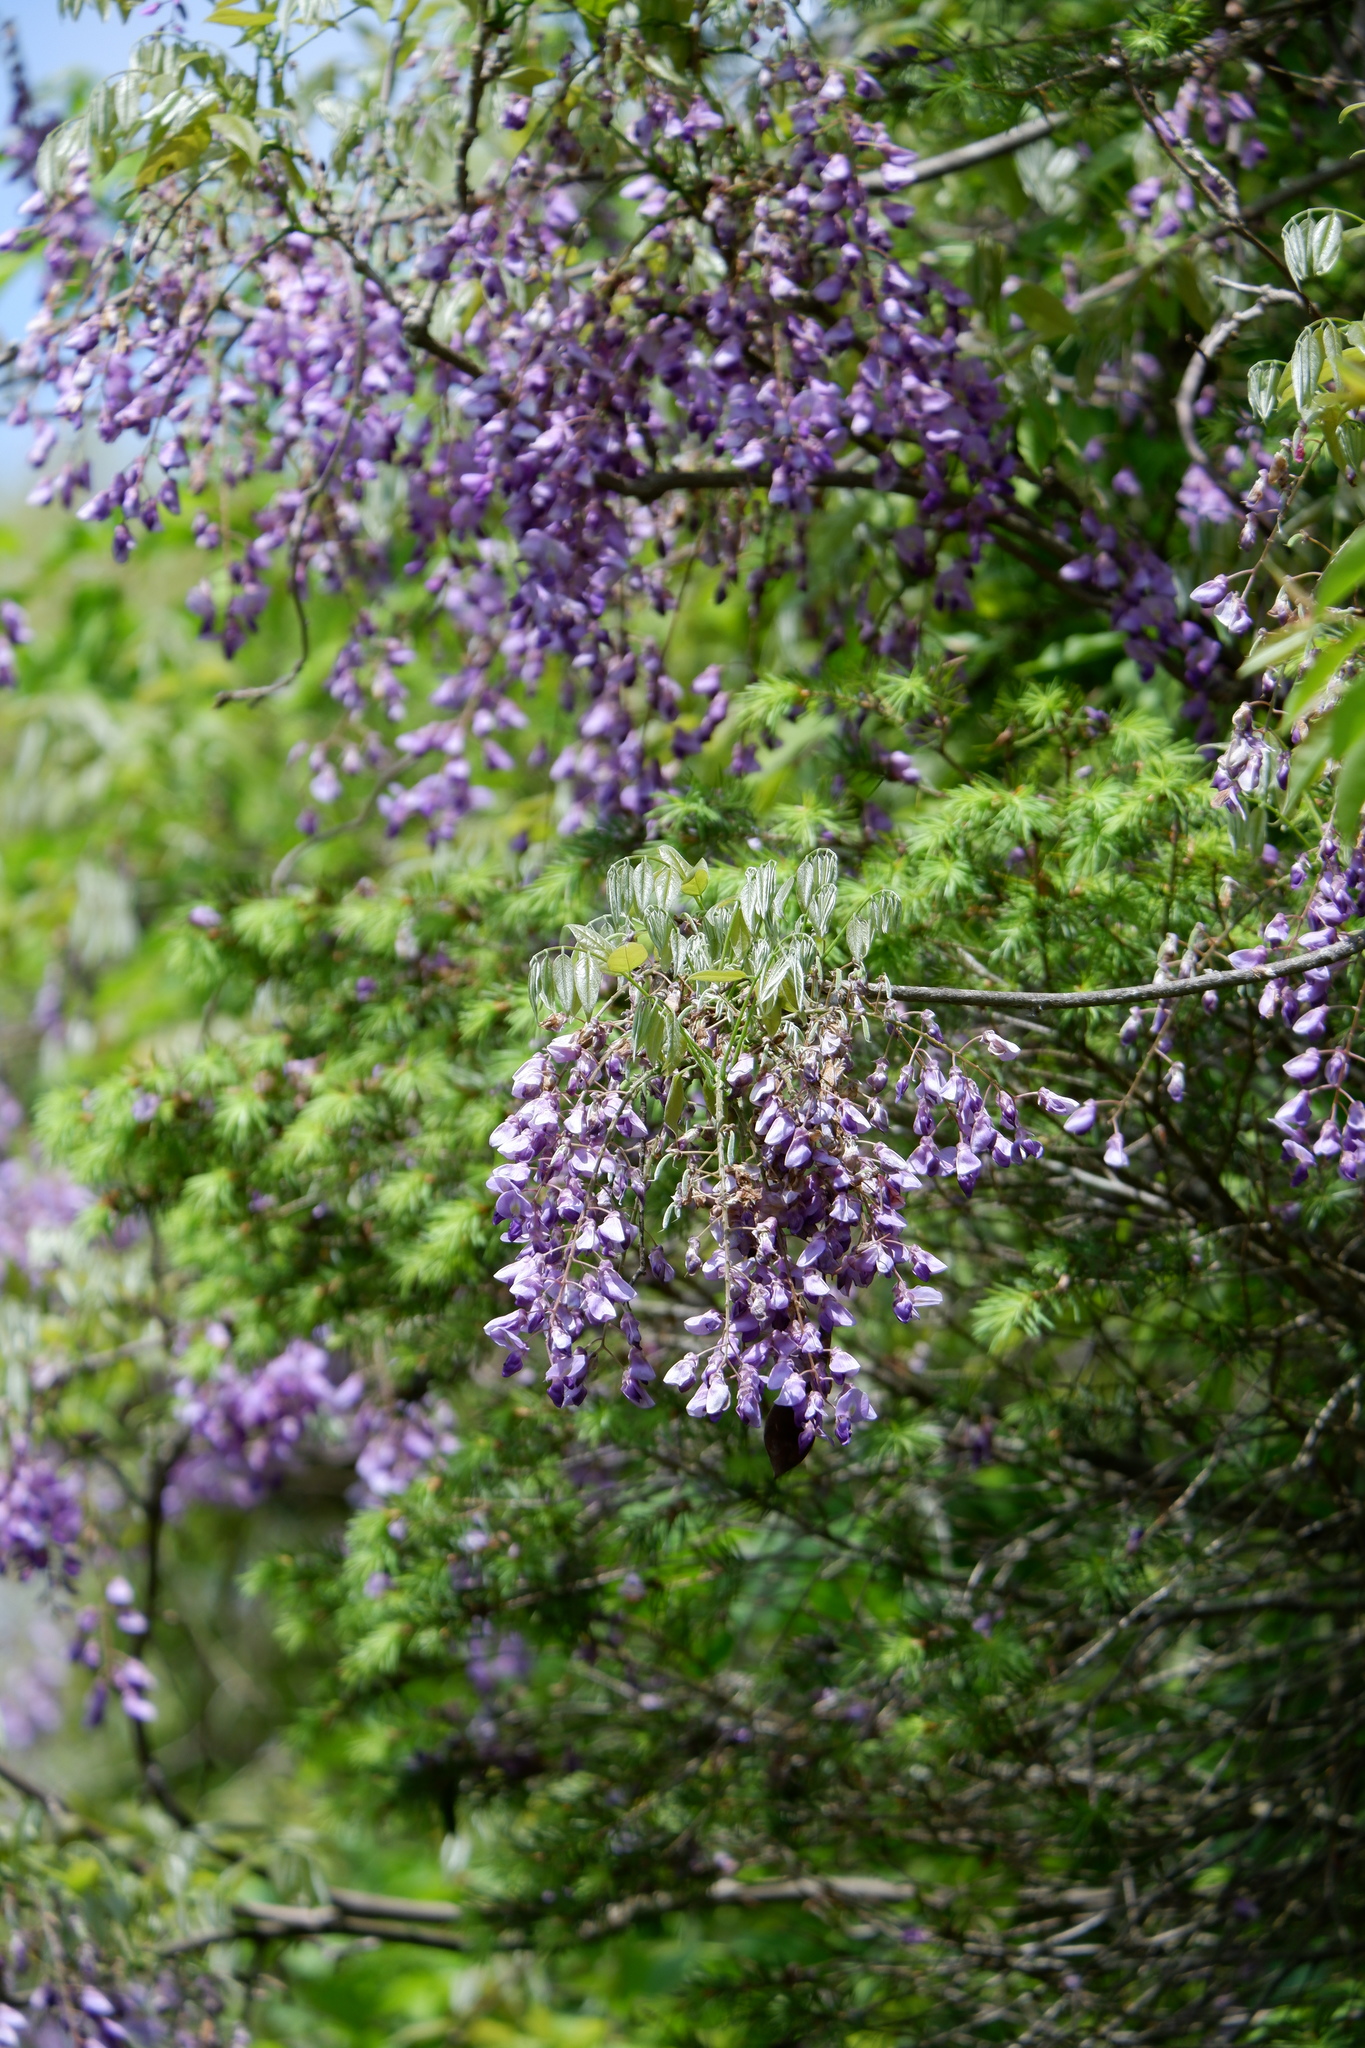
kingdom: Plantae
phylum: Tracheophyta
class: Magnoliopsida
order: Fabales
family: Fabaceae
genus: Wisteria
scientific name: Wisteria floribunda
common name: Japanese wisteria
